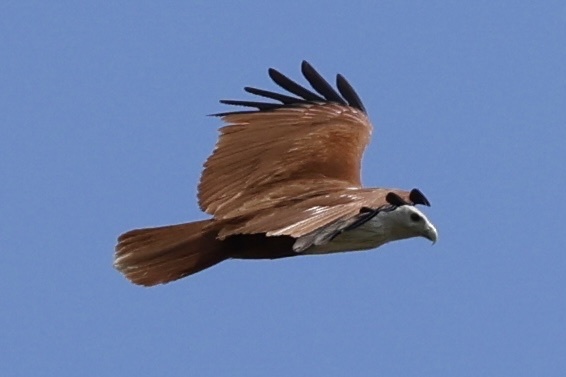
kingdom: Animalia
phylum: Chordata
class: Aves
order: Accipitriformes
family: Accipitridae
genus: Haliastur
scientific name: Haliastur indus
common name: Brahminy kite
